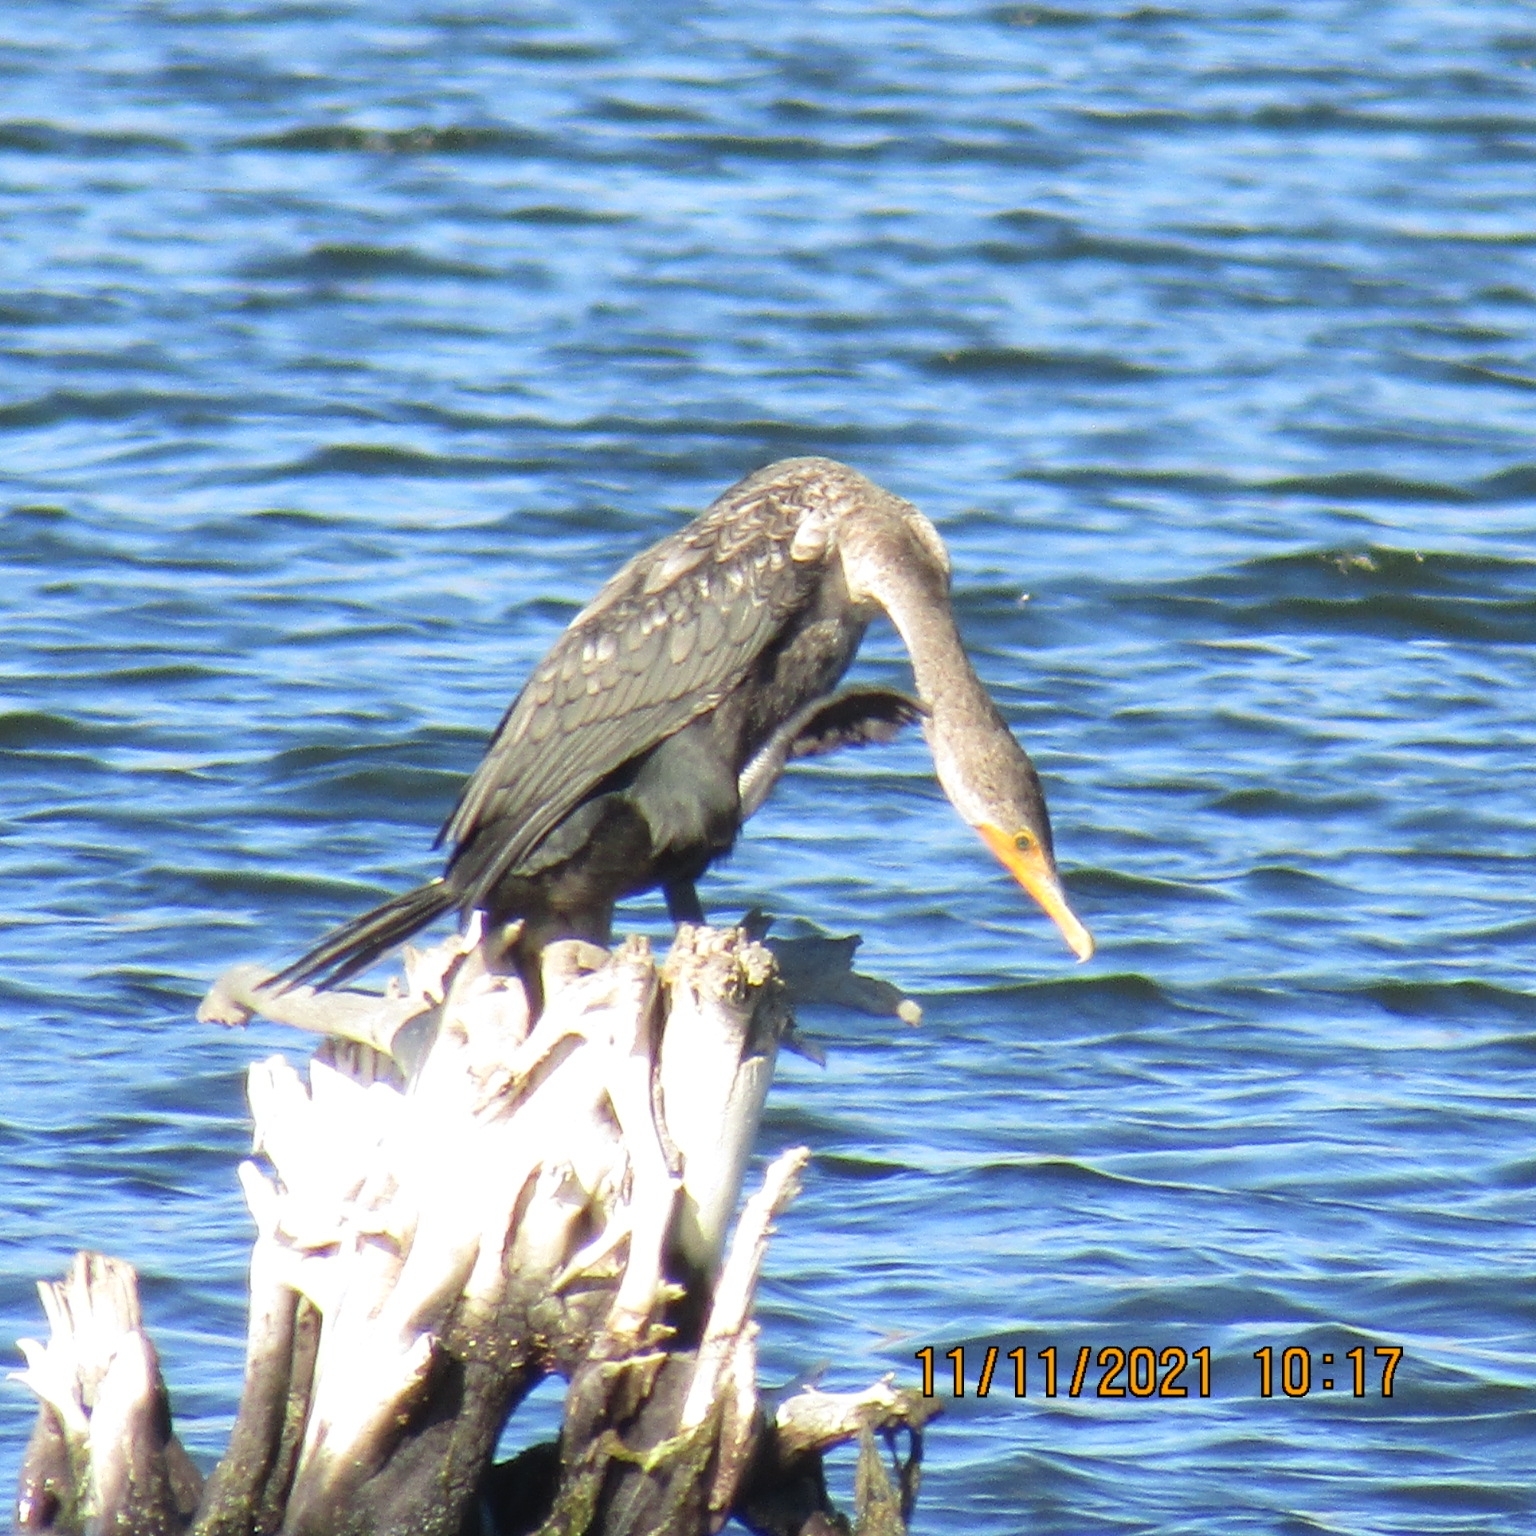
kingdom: Animalia
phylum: Chordata
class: Aves
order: Suliformes
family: Phalacrocoracidae
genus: Phalacrocorax
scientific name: Phalacrocorax auritus
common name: Double-crested cormorant
